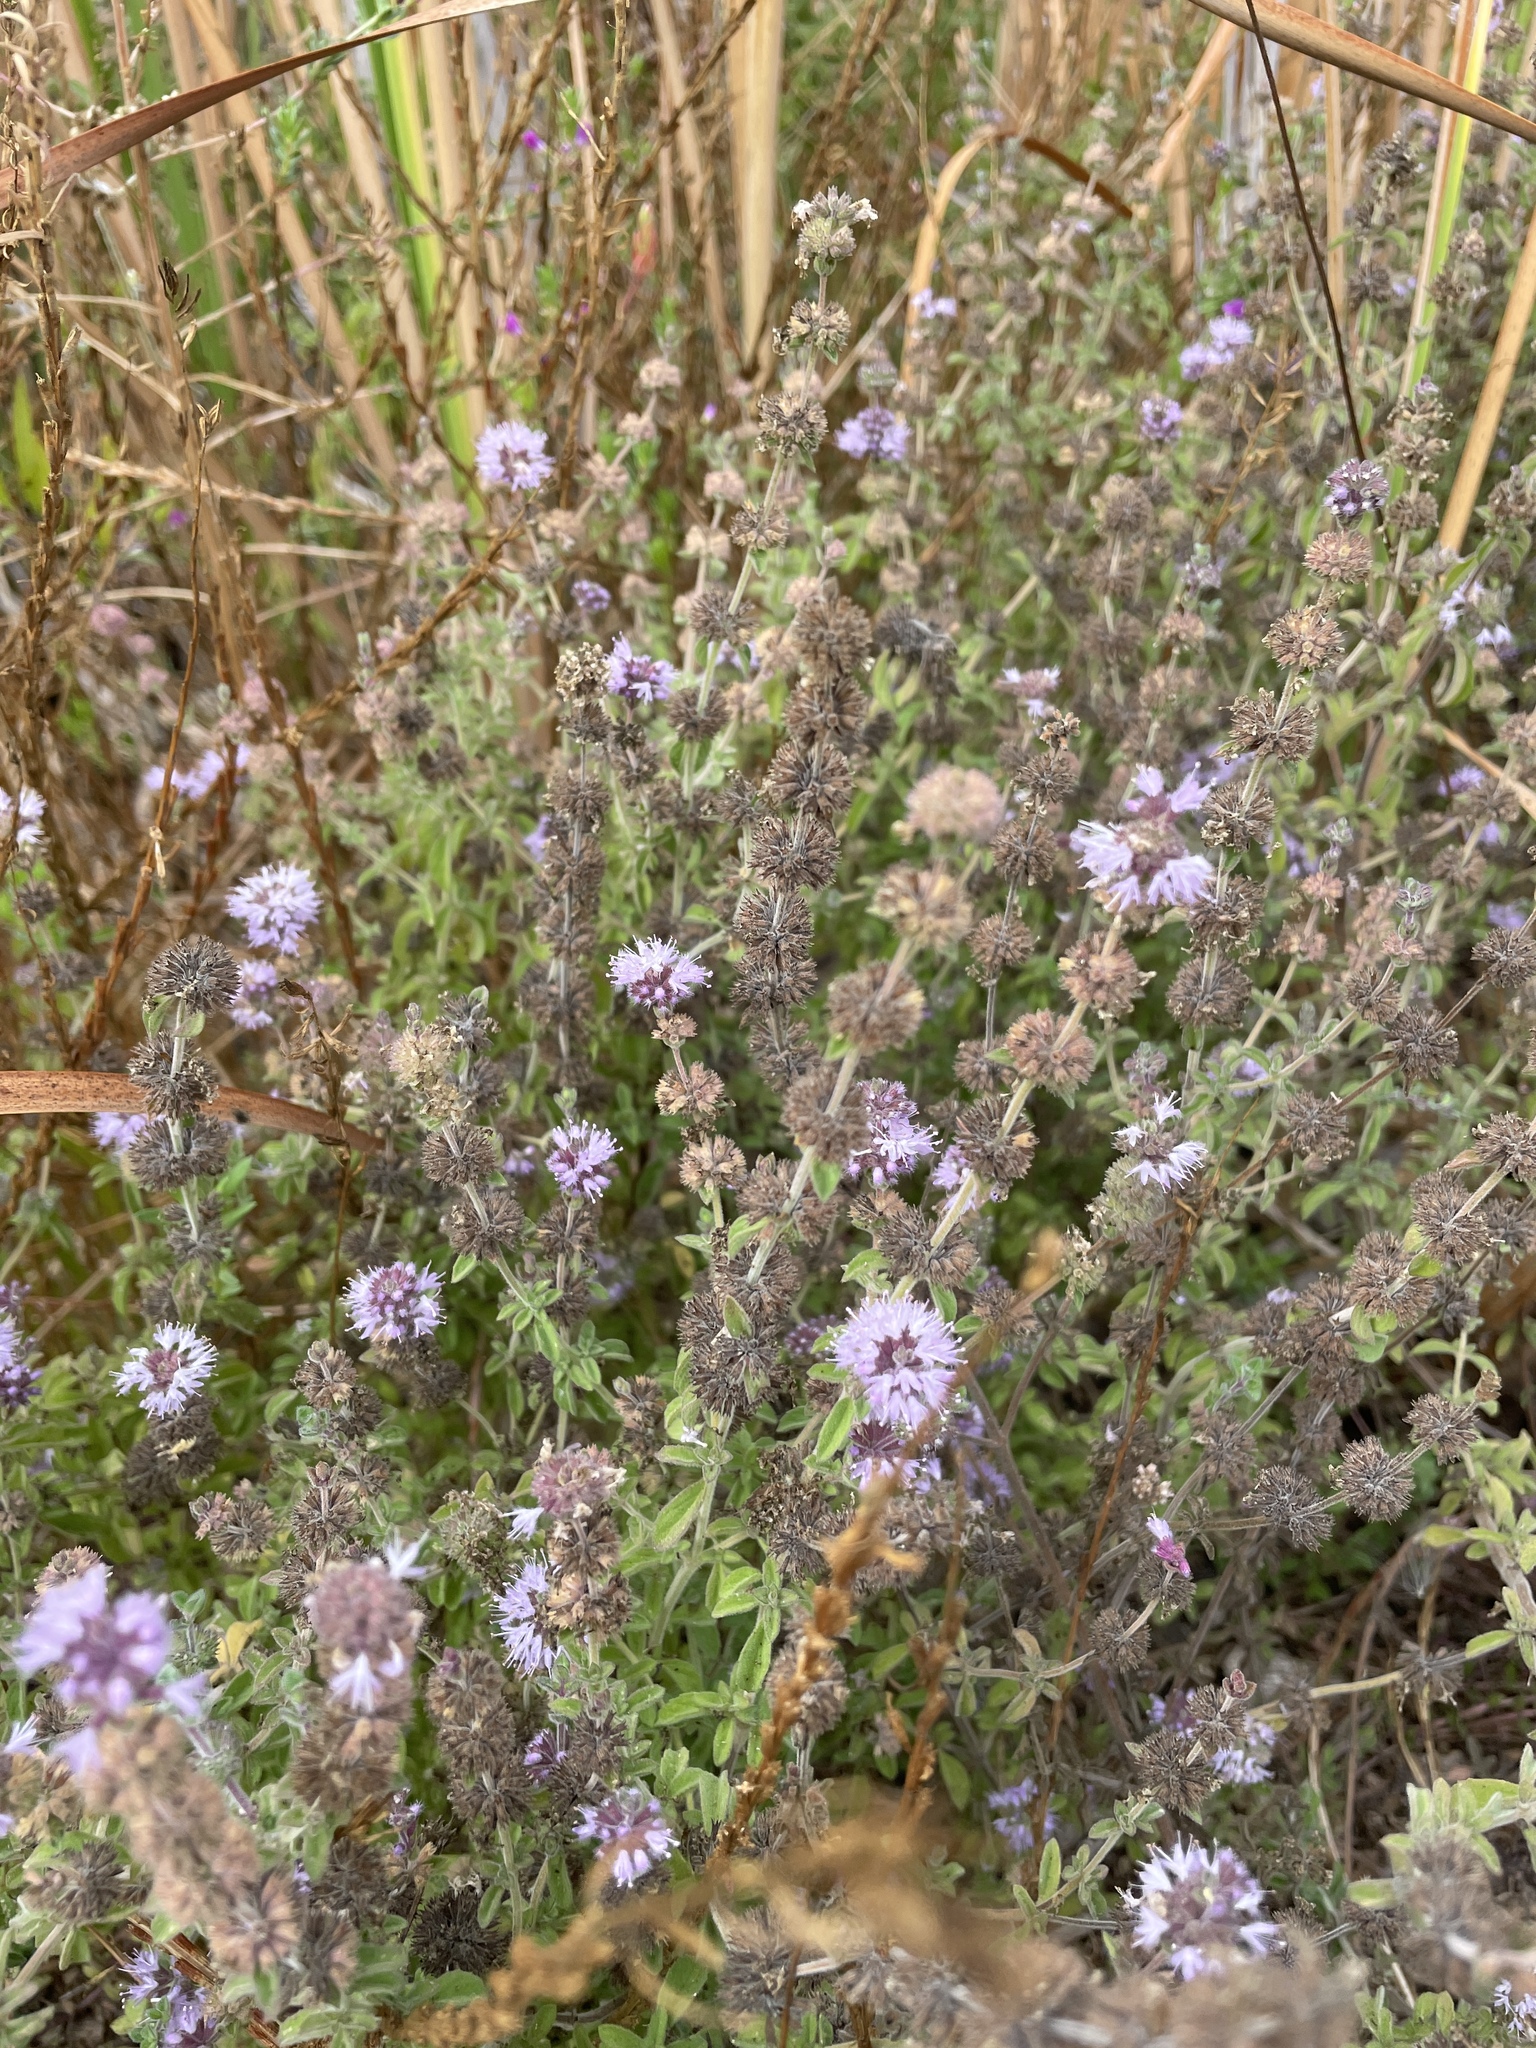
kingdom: Plantae
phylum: Tracheophyta
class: Magnoliopsida
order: Lamiales
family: Lamiaceae
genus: Mentha
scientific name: Mentha pulegium
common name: Pennyroyal
